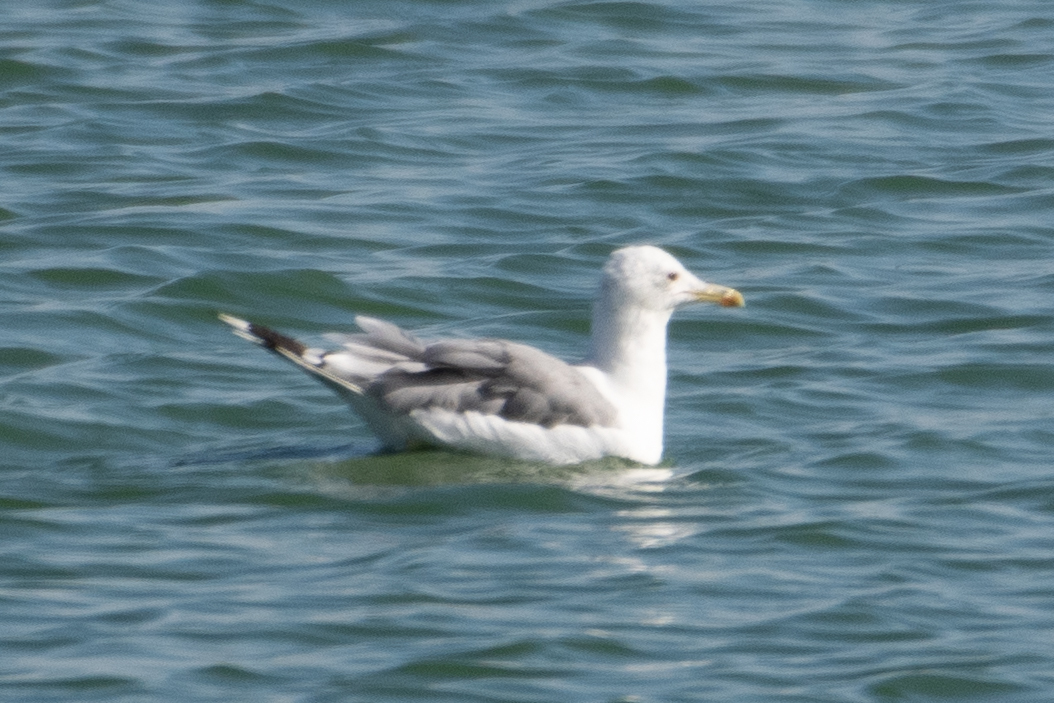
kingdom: Animalia
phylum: Chordata
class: Aves
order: Charadriiformes
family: Laridae
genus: Larus
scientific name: Larus californicus
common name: California gull
